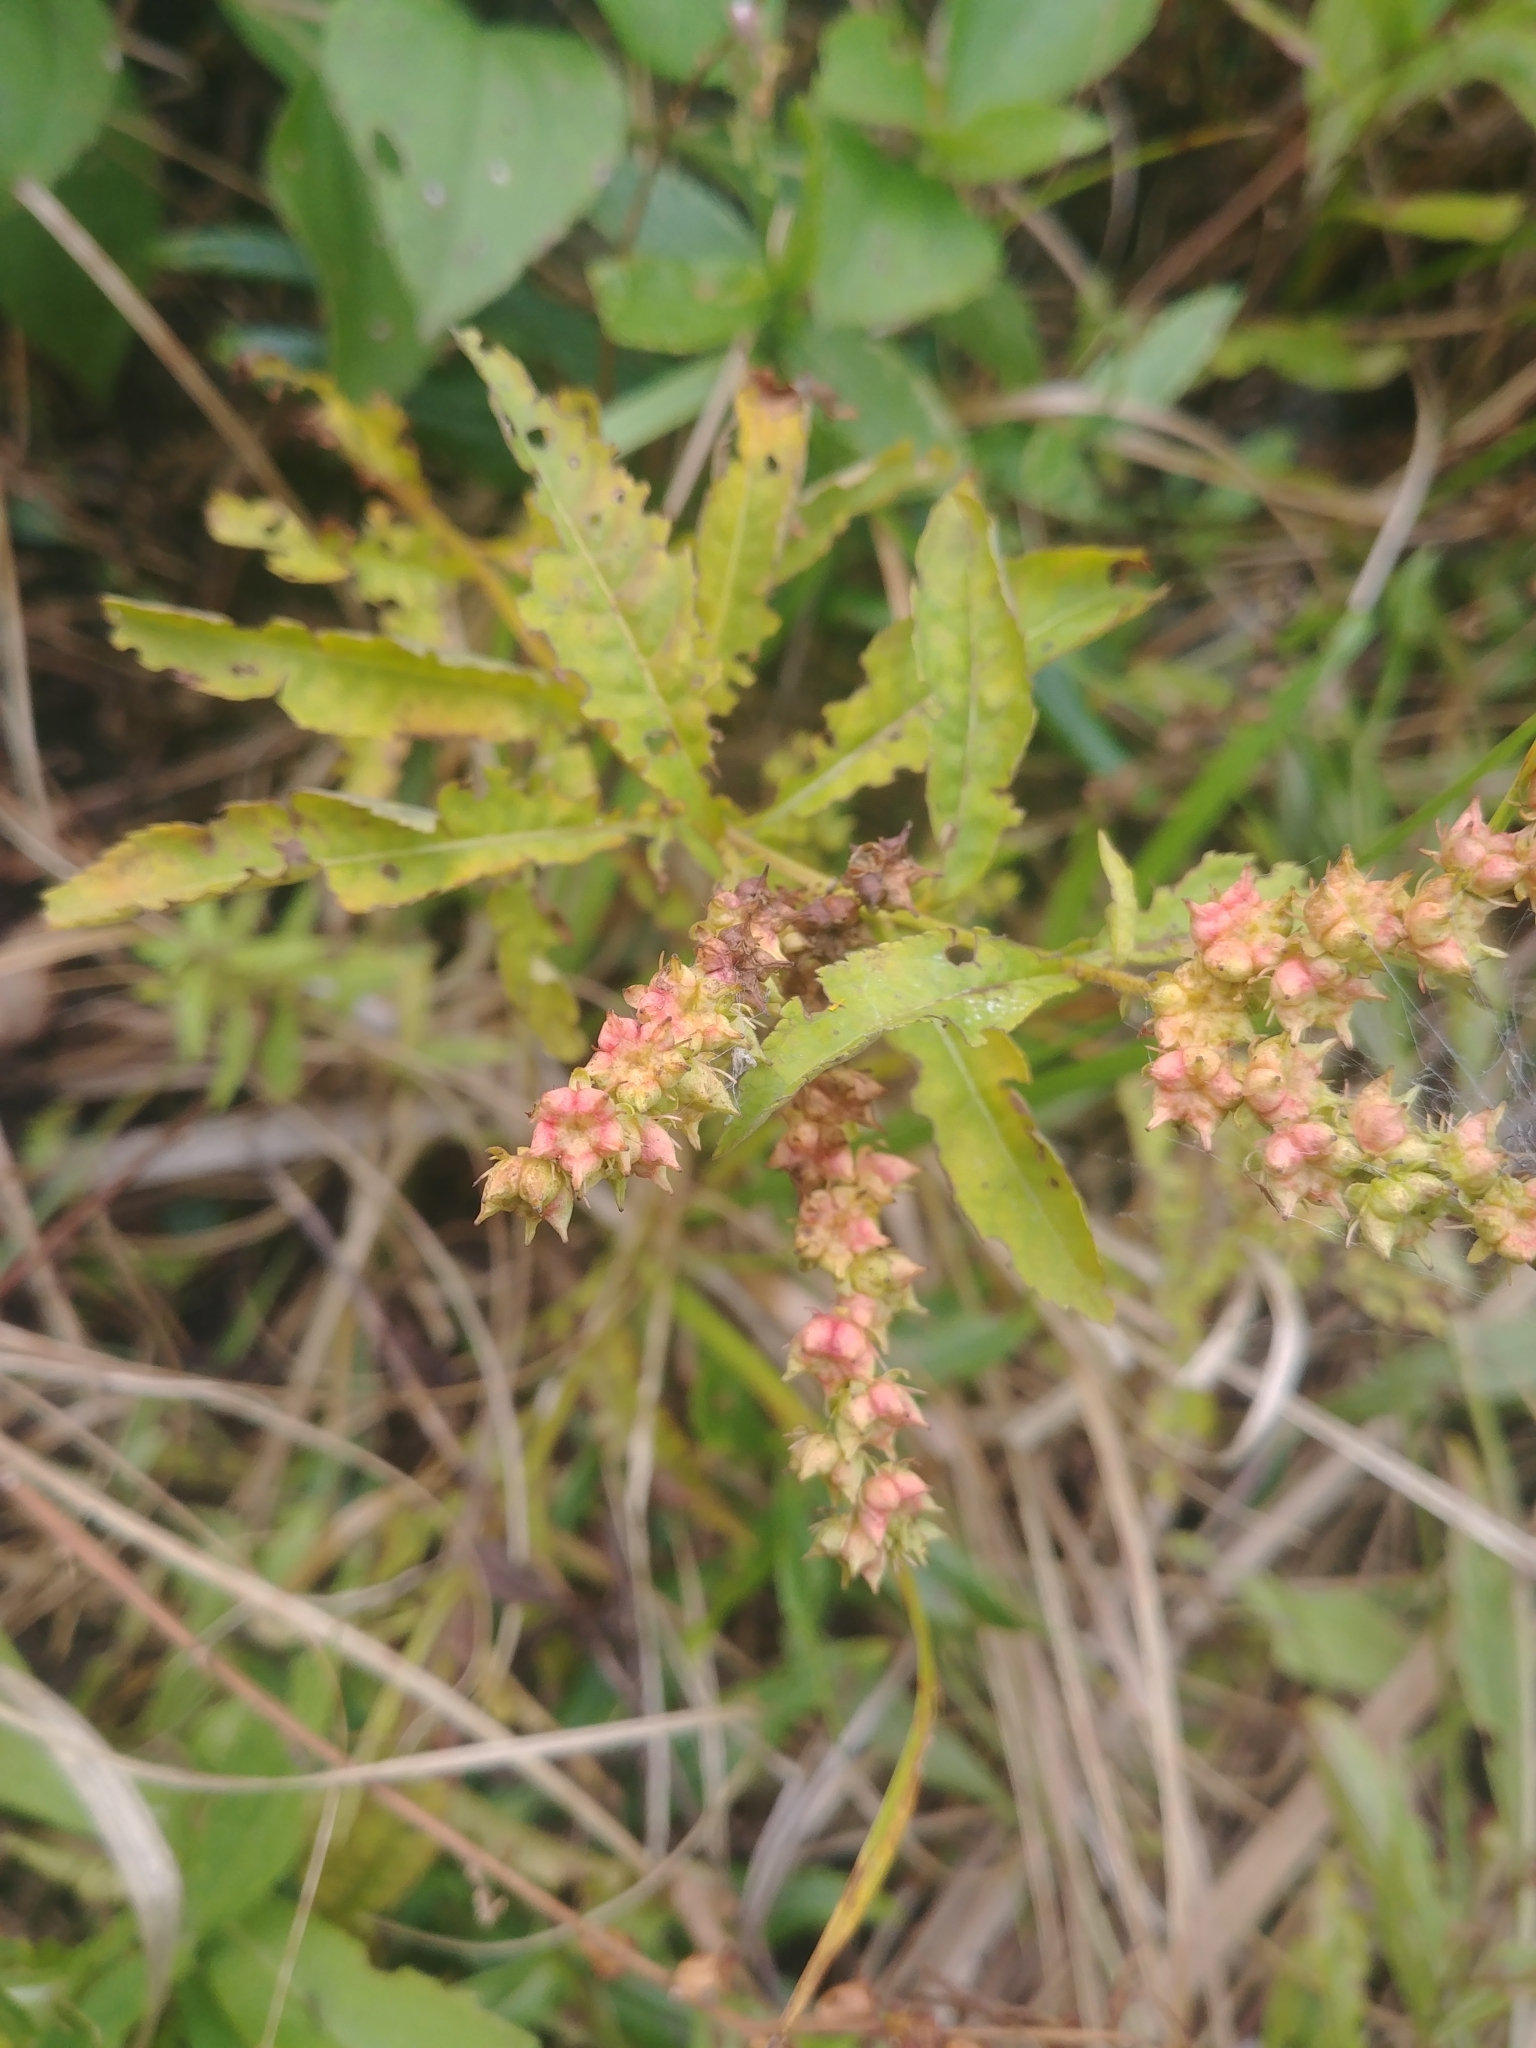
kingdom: Plantae
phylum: Tracheophyta
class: Magnoliopsida
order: Saxifragales
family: Penthoraceae
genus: Penthorum
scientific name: Penthorum sedoides
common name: Ditch stonecrop
